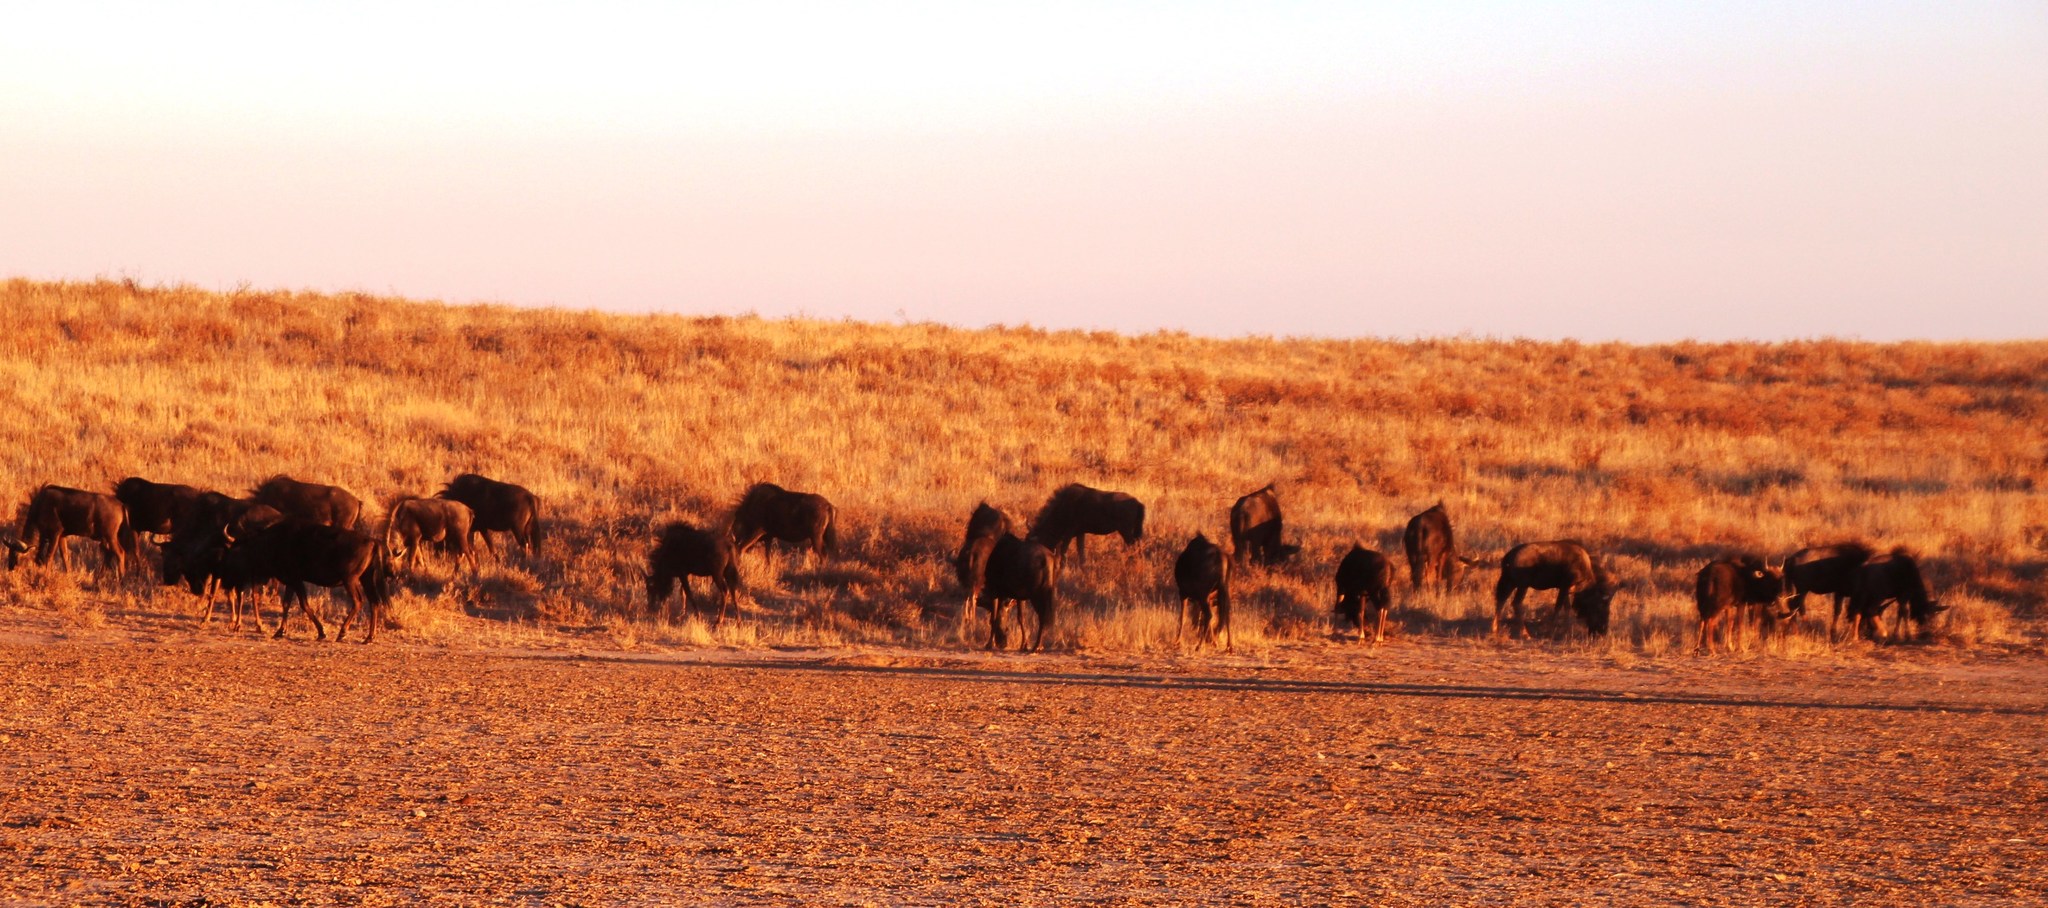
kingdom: Animalia
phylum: Chordata
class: Mammalia
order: Artiodactyla
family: Bovidae
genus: Connochaetes
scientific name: Connochaetes taurinus
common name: Blue wildebeest
